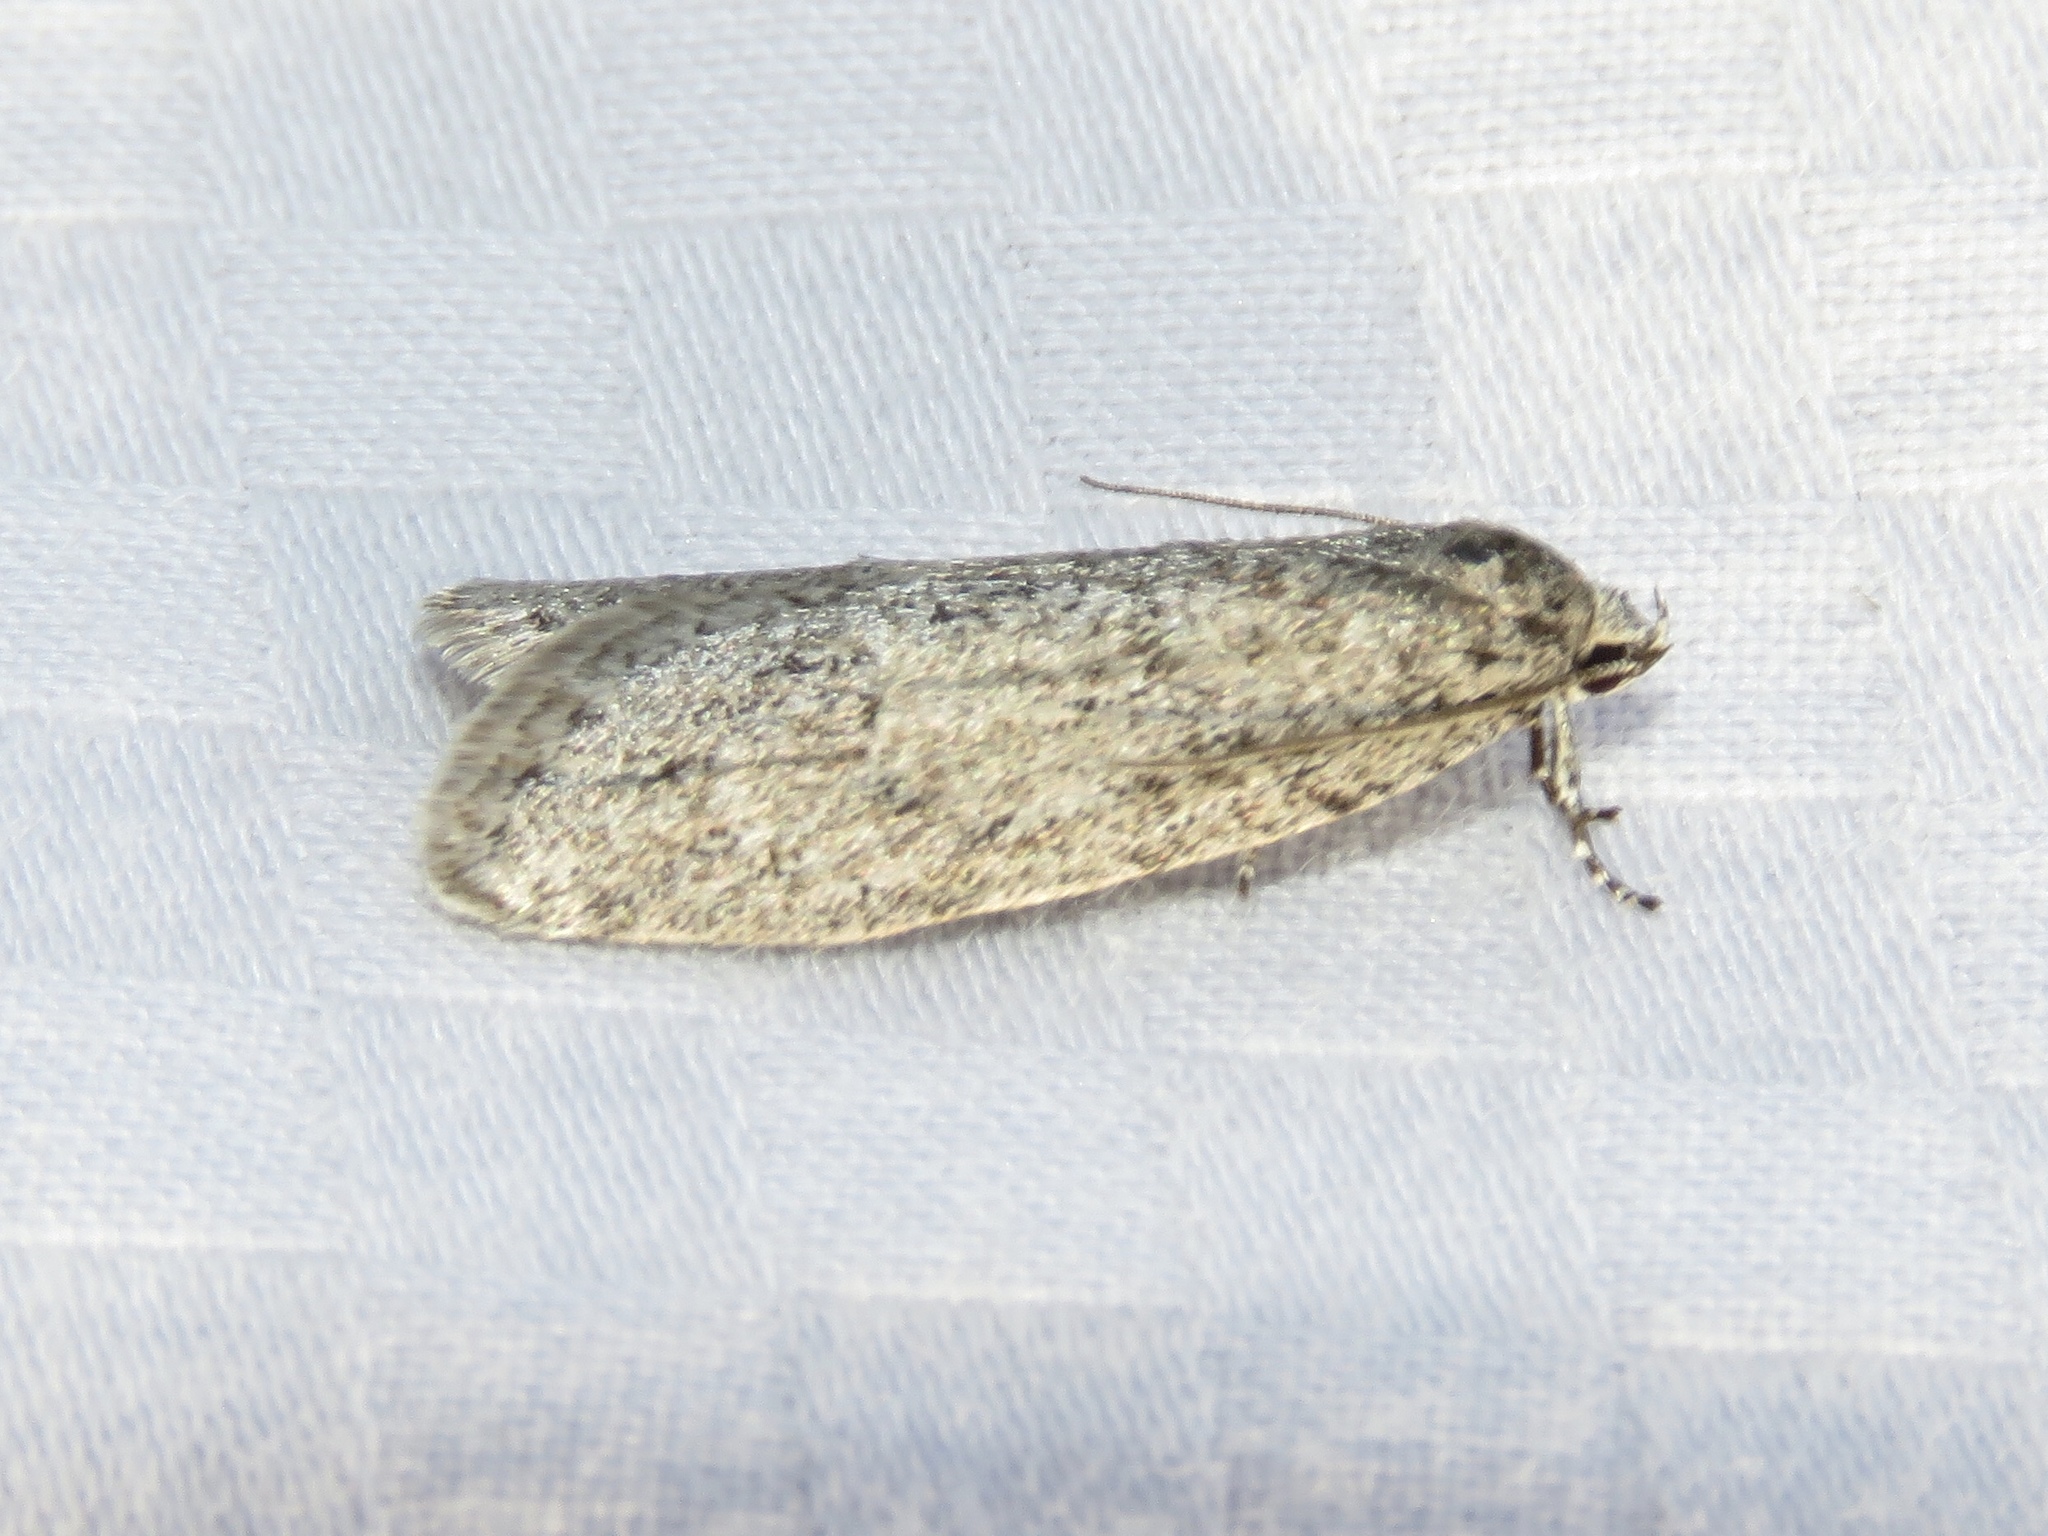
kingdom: Animalia
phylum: Arthropoda
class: Insecta
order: Lepidoptera
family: Depressariidae
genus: Semioscopis
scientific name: Semioscopis inornata
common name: Poplar micromoth
